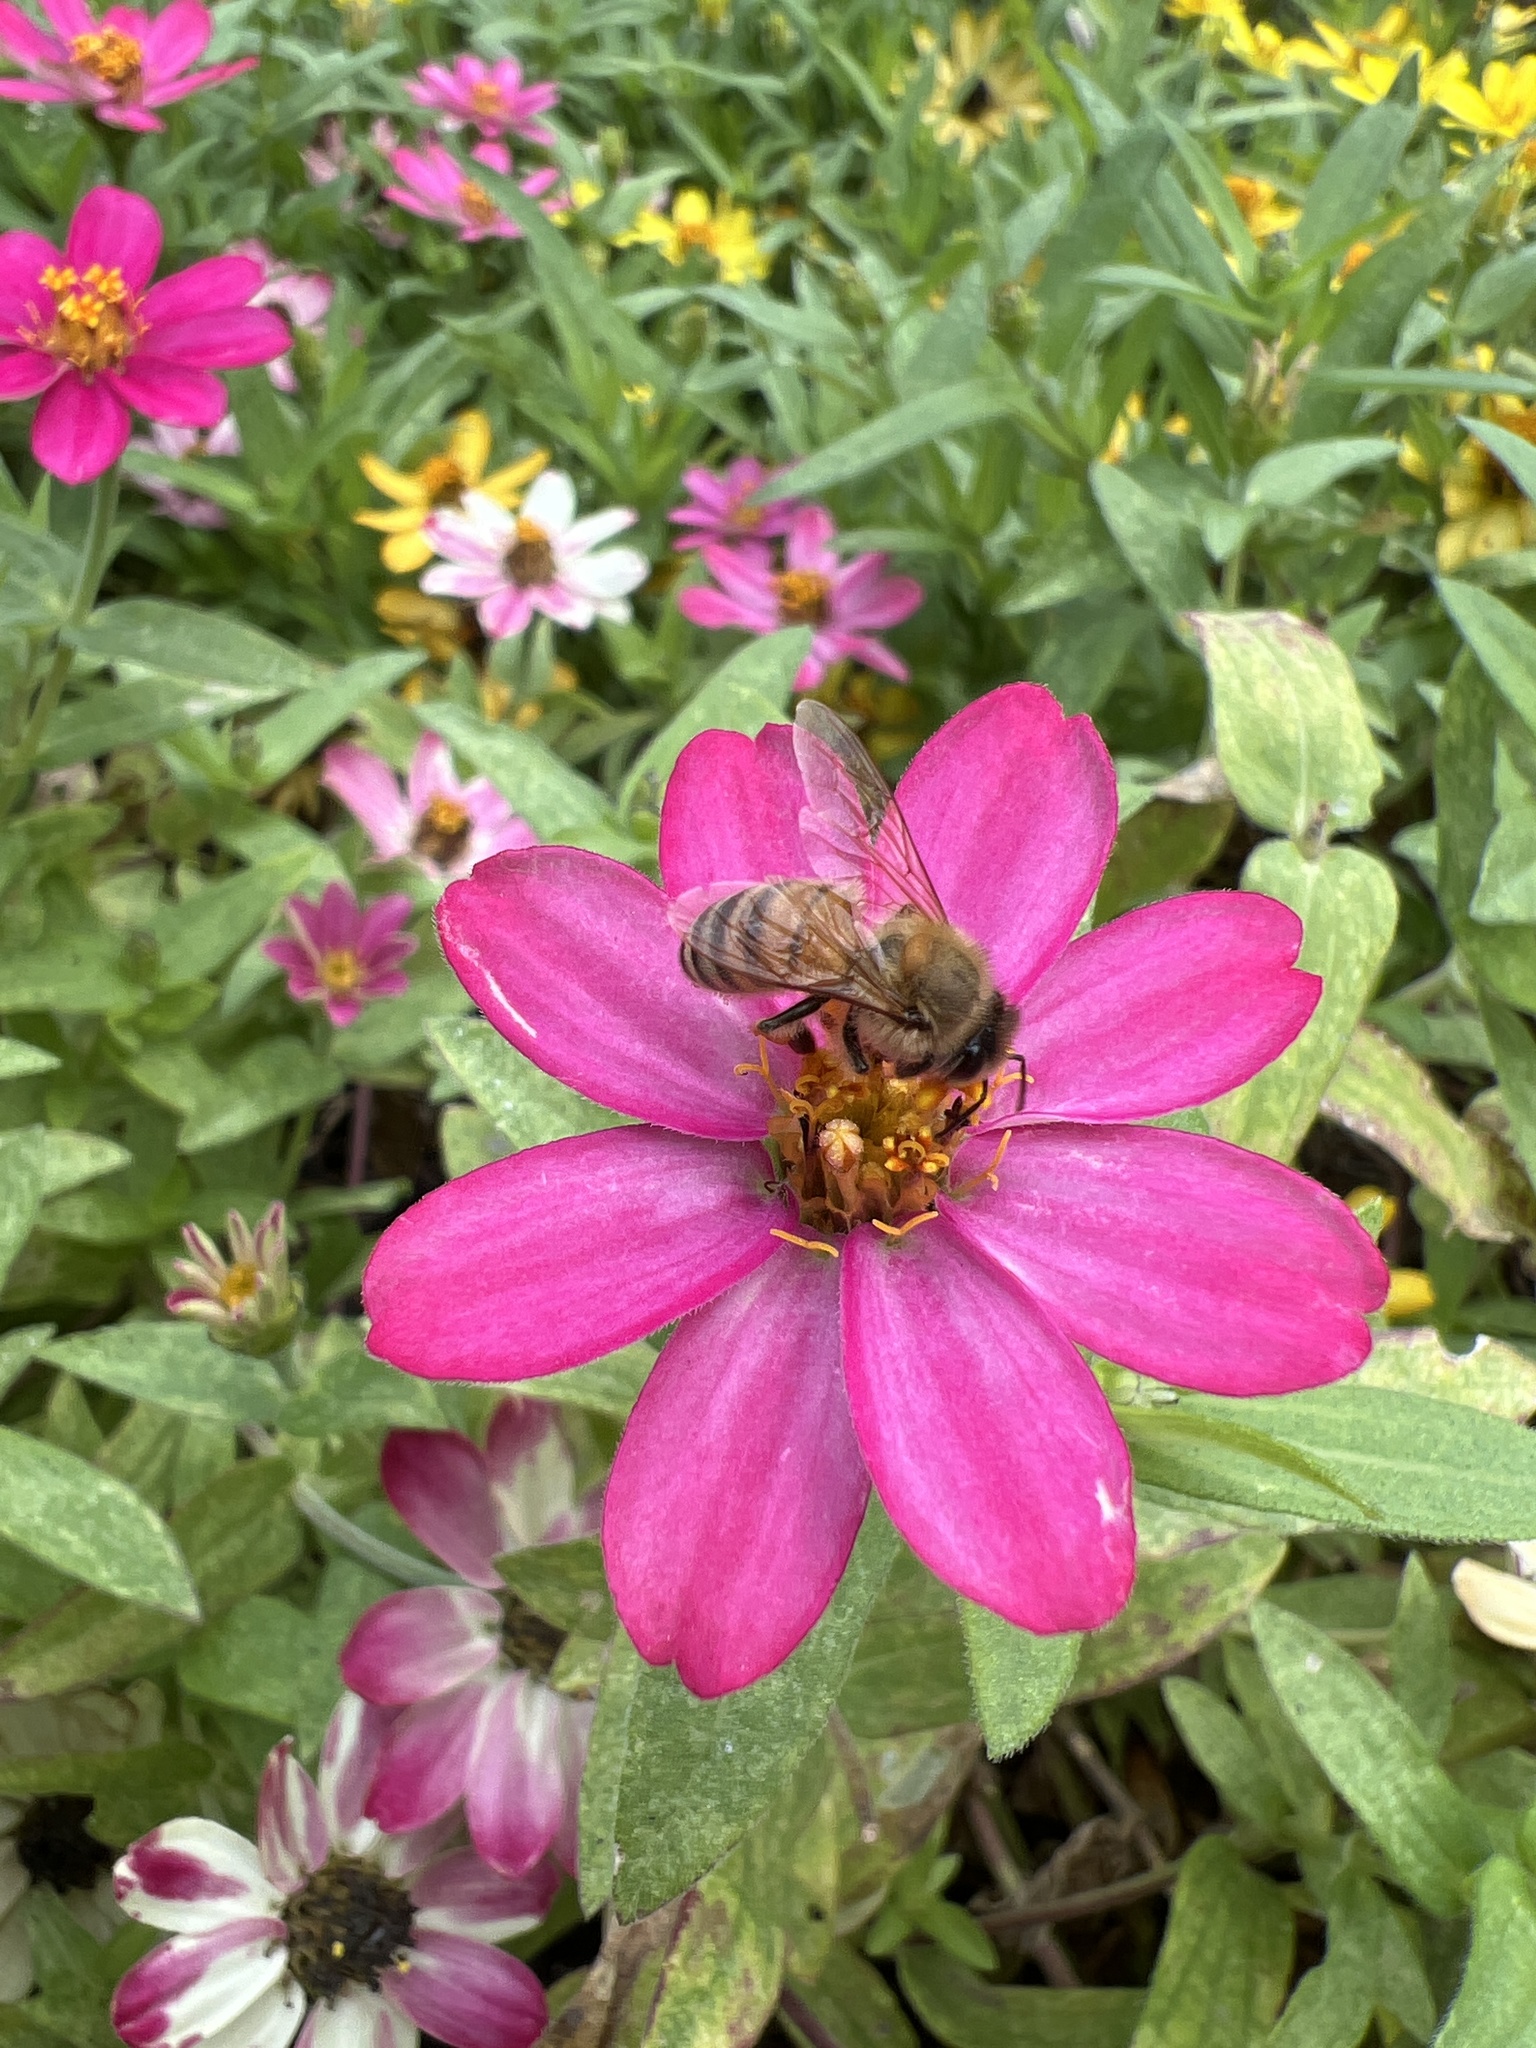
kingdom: Animalia
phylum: Arthropoda
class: Insecta
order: Hymenoptera
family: Apidae
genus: Apis
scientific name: Apis mellifera
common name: Honey bee
